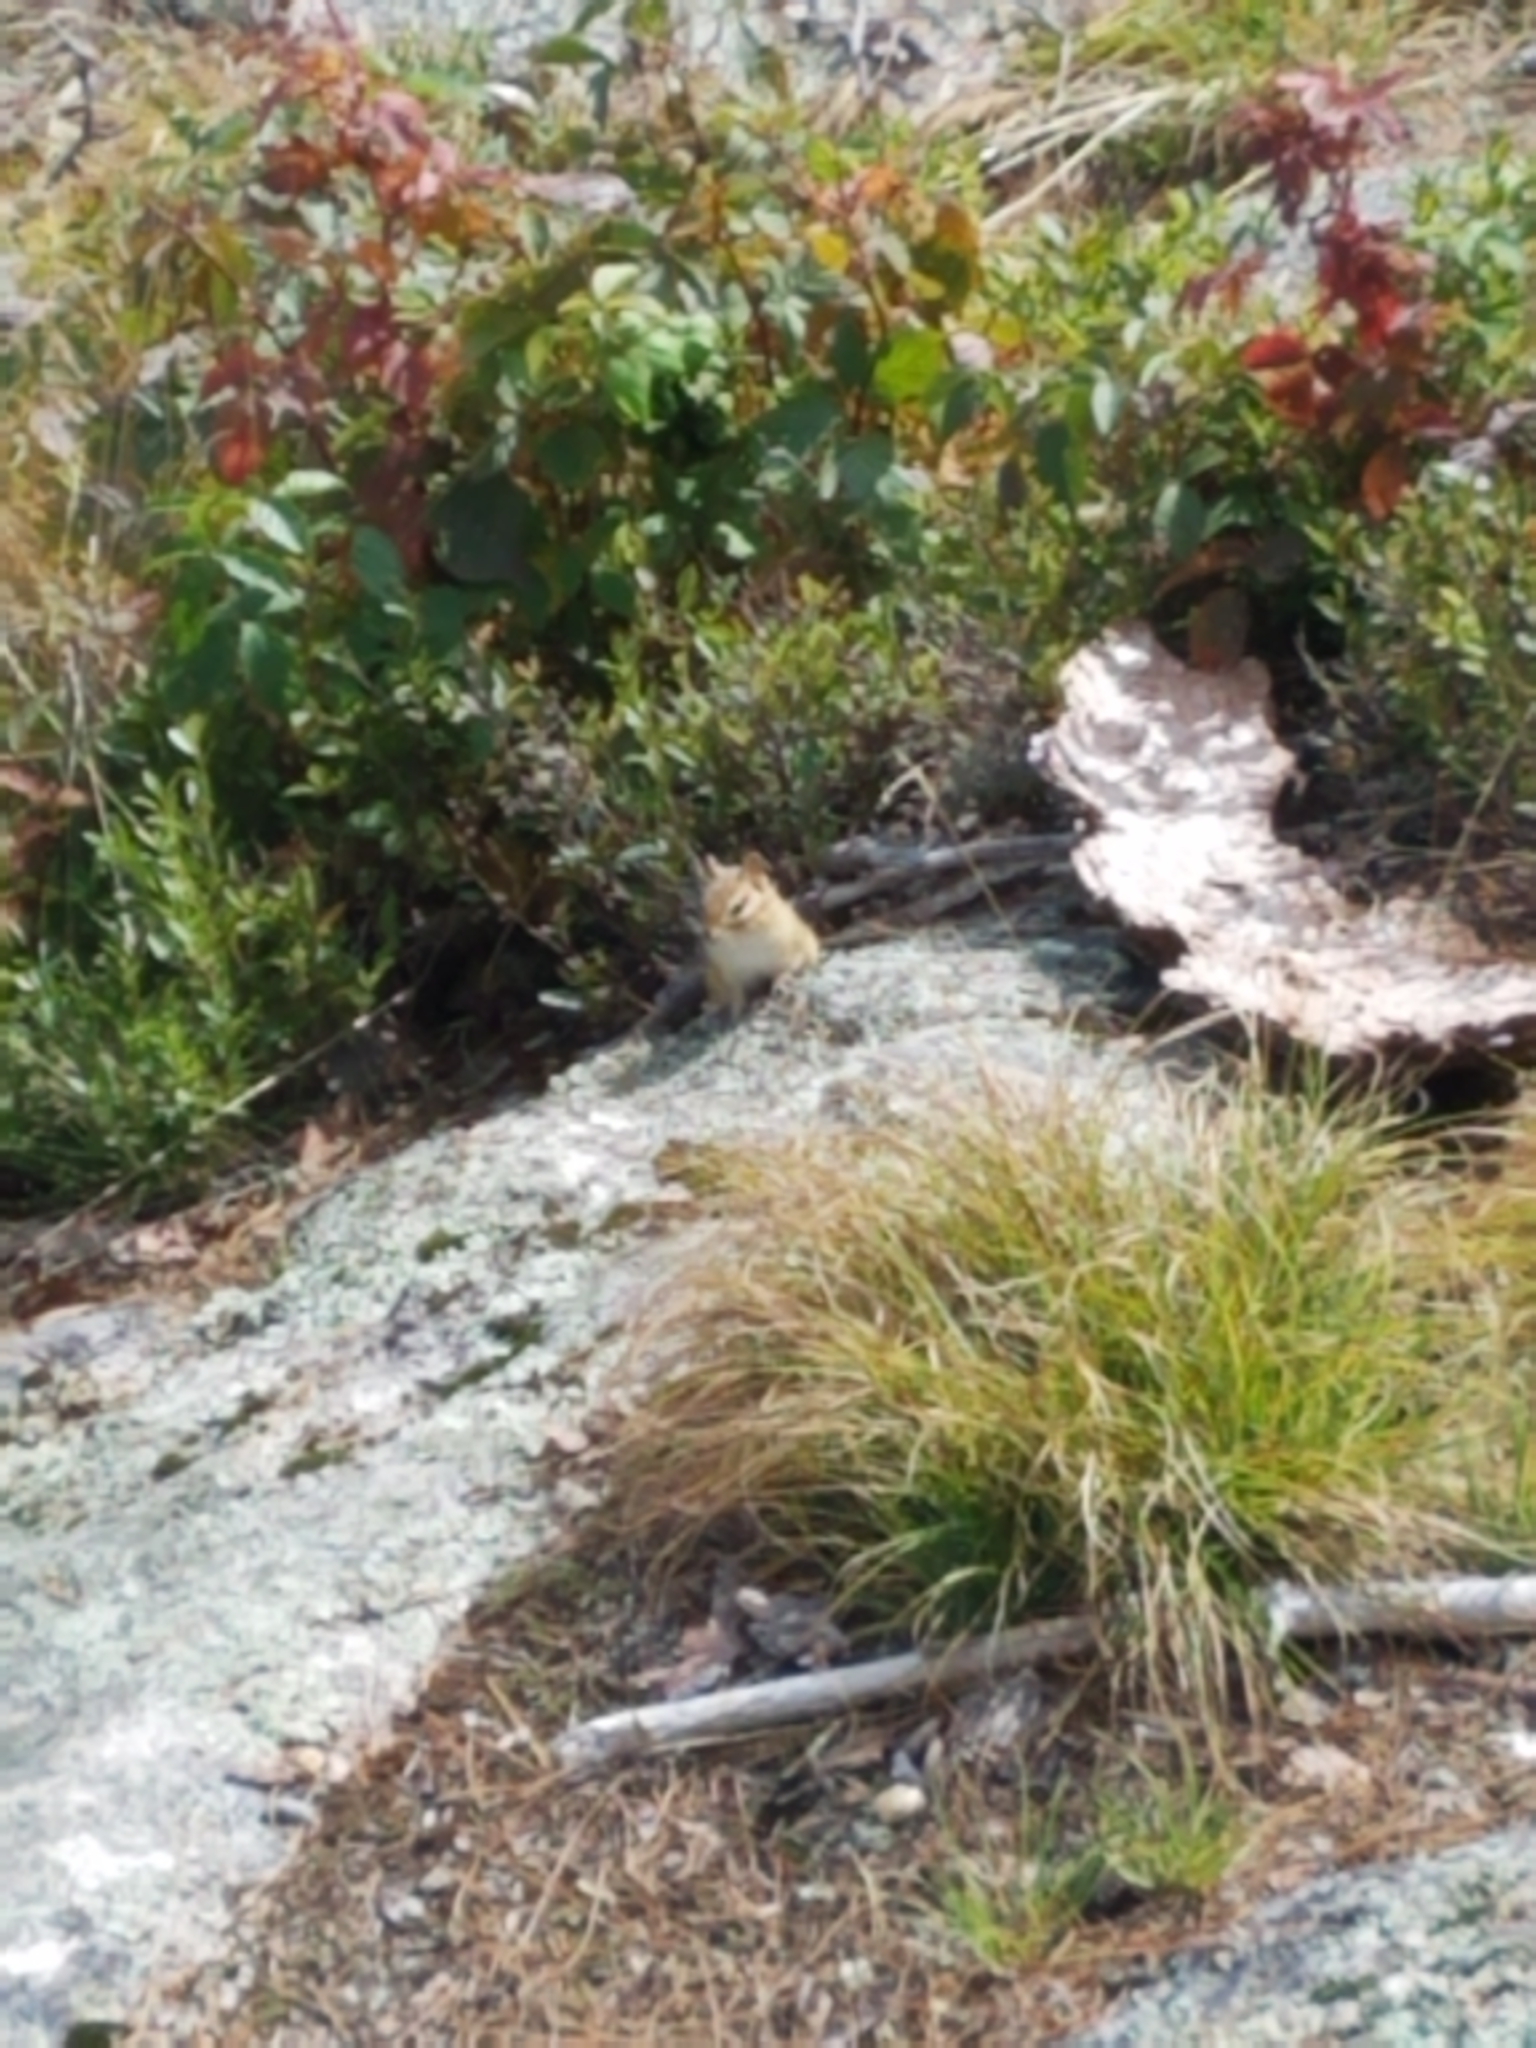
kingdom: Animalia
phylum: Chordata
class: Mammalia
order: Rodentia
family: Sciuridae
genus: Tamias
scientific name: Tamias striatus
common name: Eastern chipmunk
